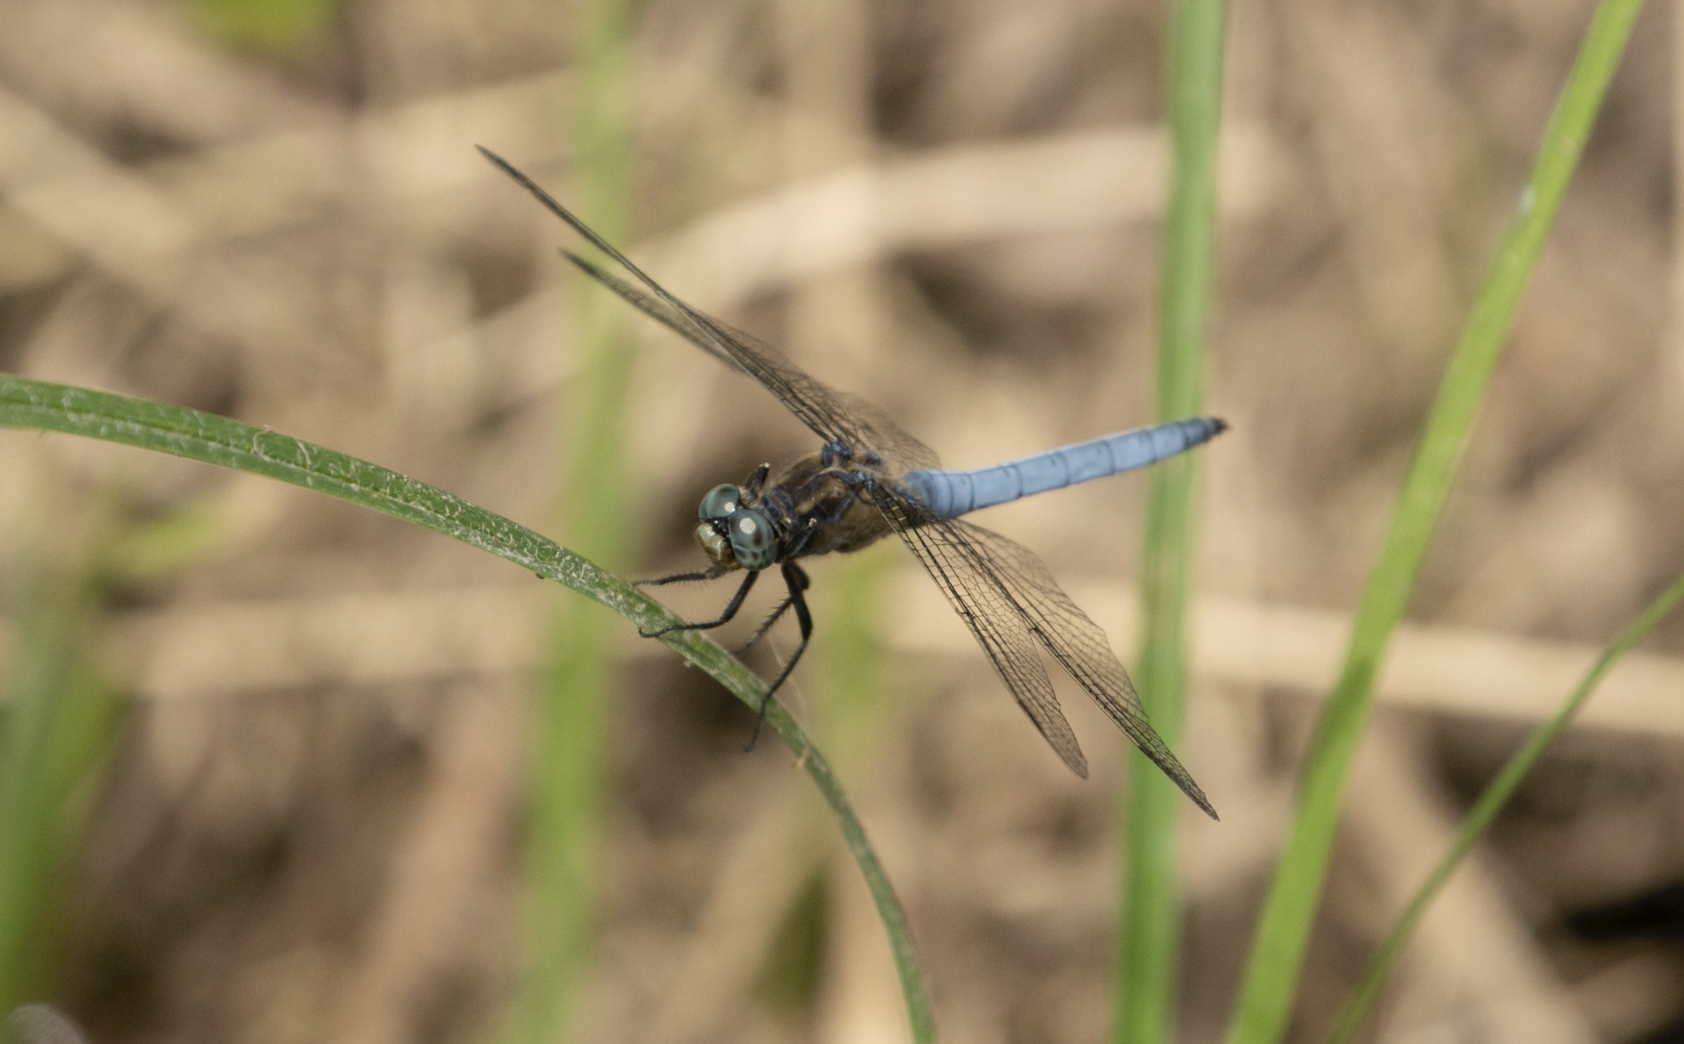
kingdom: Animalia
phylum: Arthropoda
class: Insecta
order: Odonata
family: Libellulidae
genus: Orthetrum
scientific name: Orthetrum coerulescens
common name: Keeled skimmer
